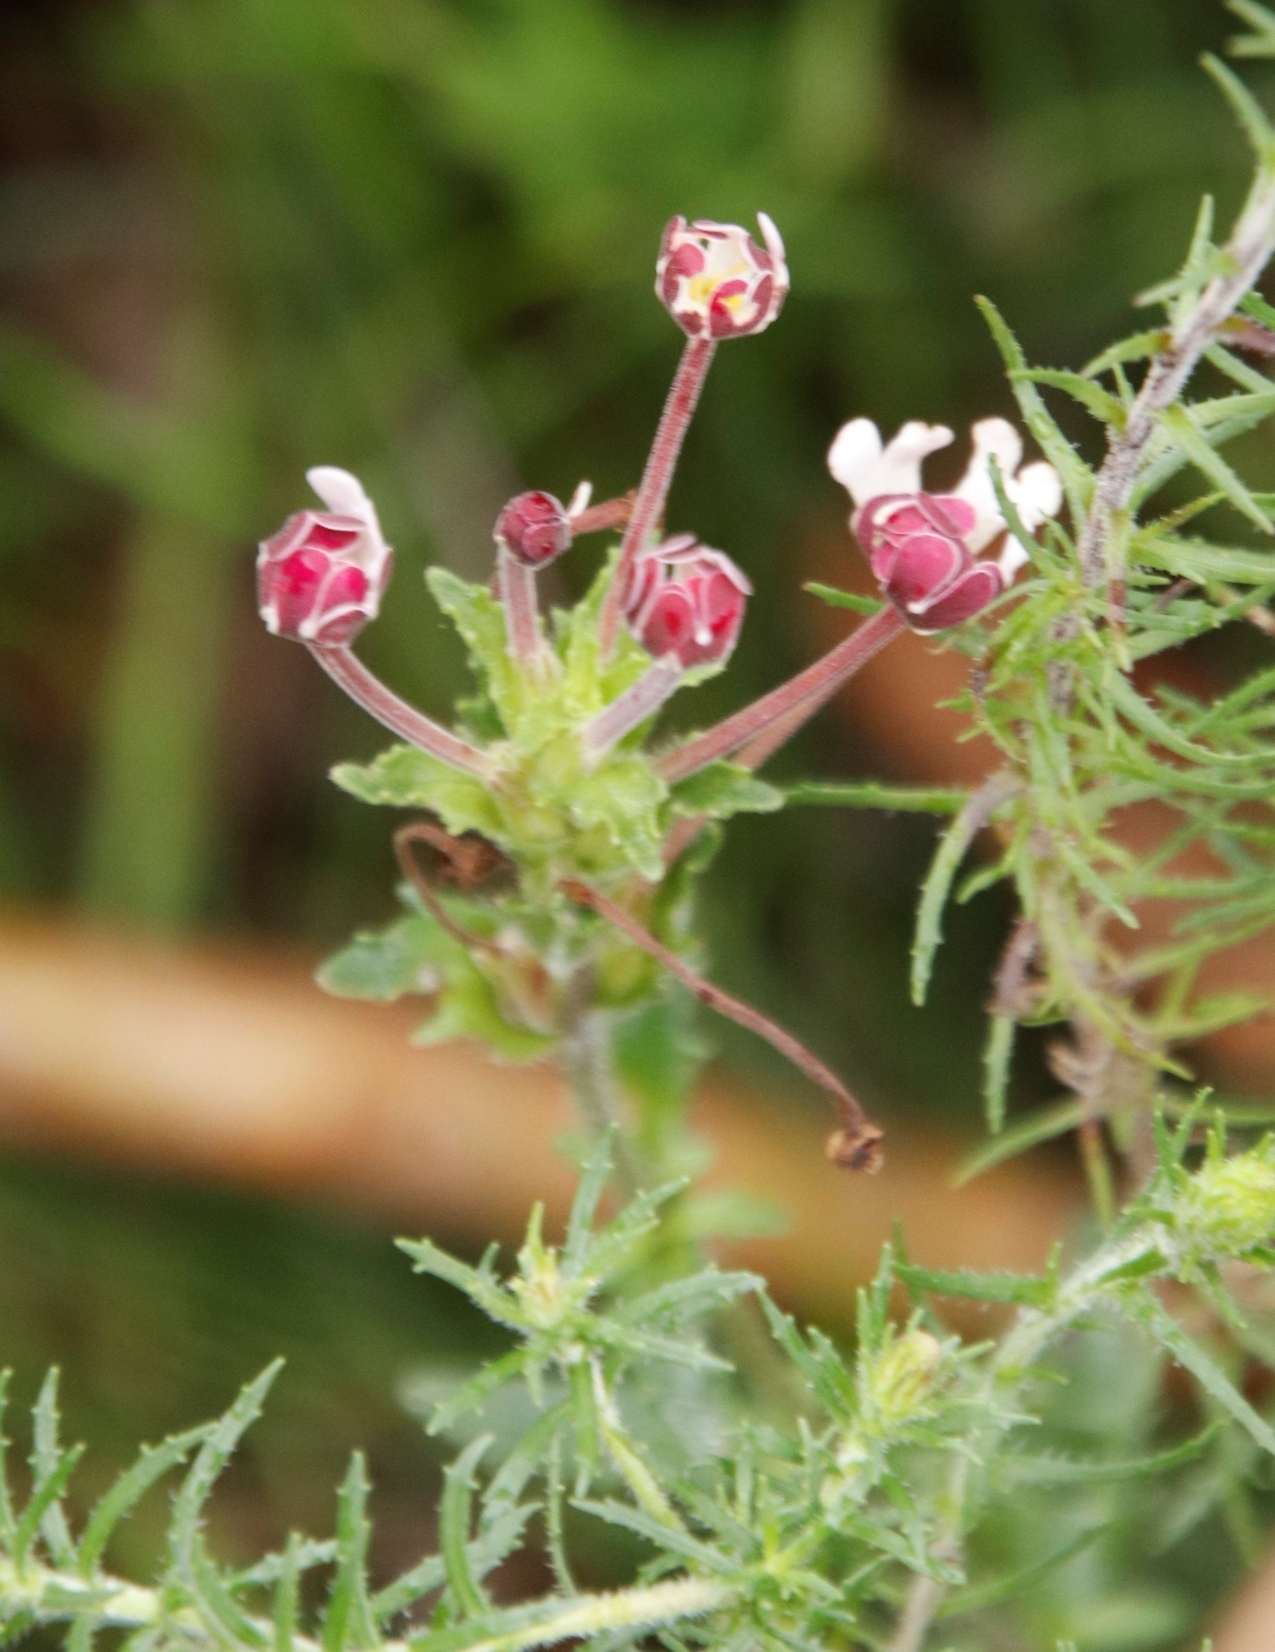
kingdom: Plantae
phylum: Tracheophyta
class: Magnoliopsida
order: Lamiales
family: Scrophulariaceae
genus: Zaluzianskya
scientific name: Zaluzianskya capensis
